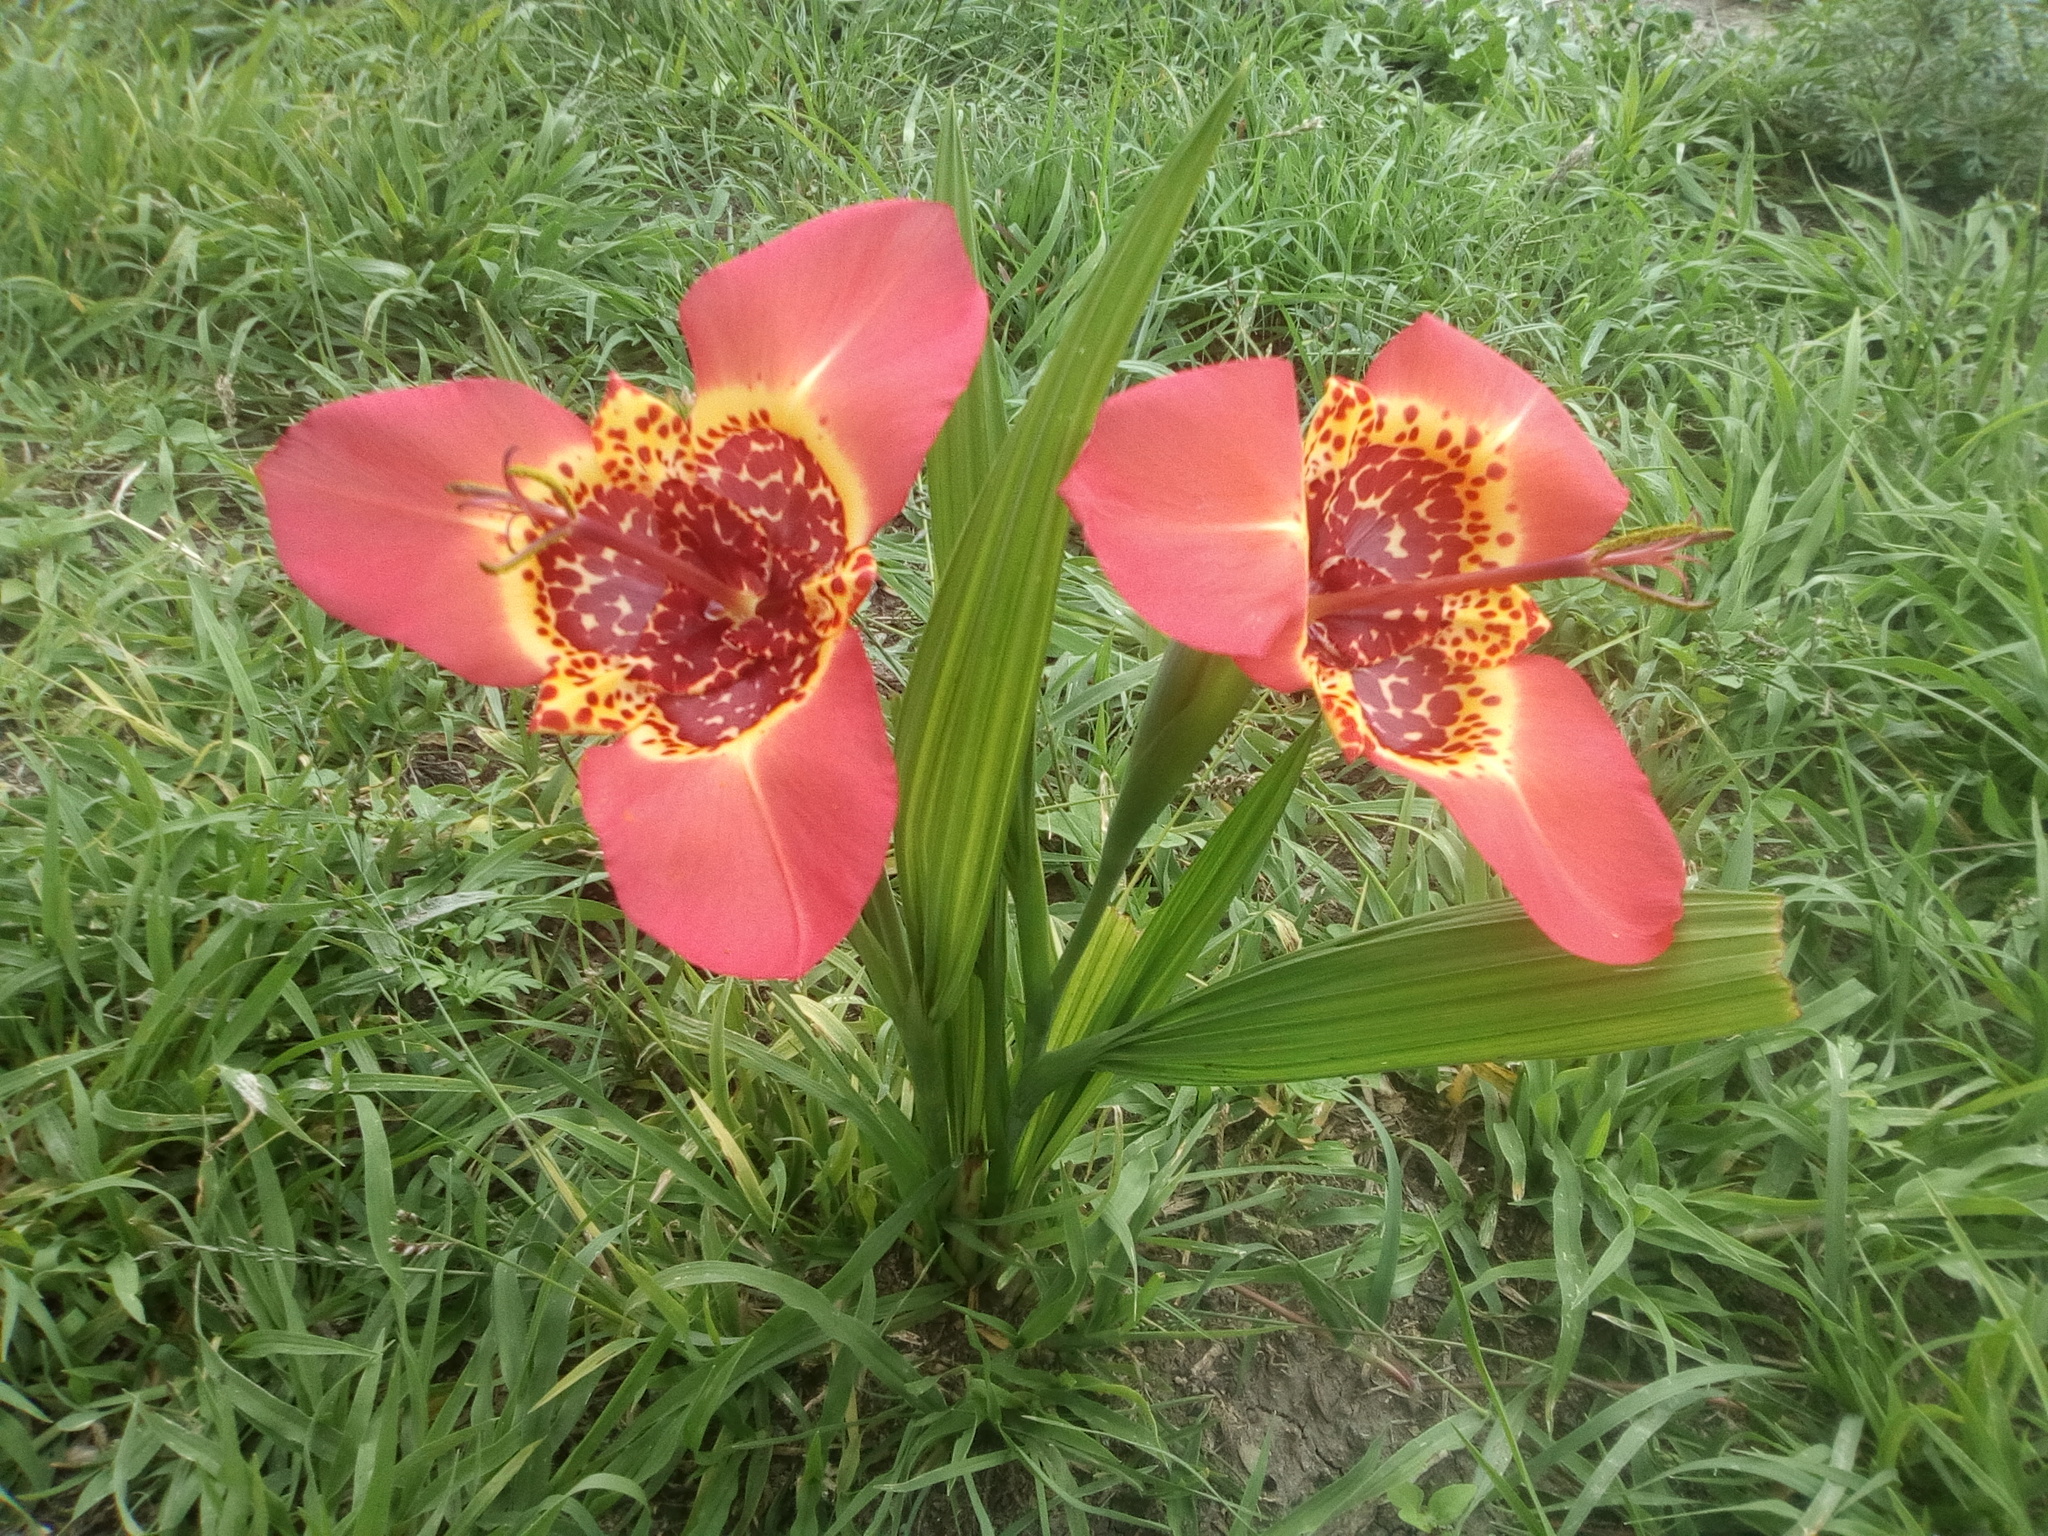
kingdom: Plantae
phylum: Tracheophyta
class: Liliopsida
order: Asparagales
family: Iridaceae
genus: Tigridia
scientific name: Tigridia pavonia
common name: Peacock-flower
